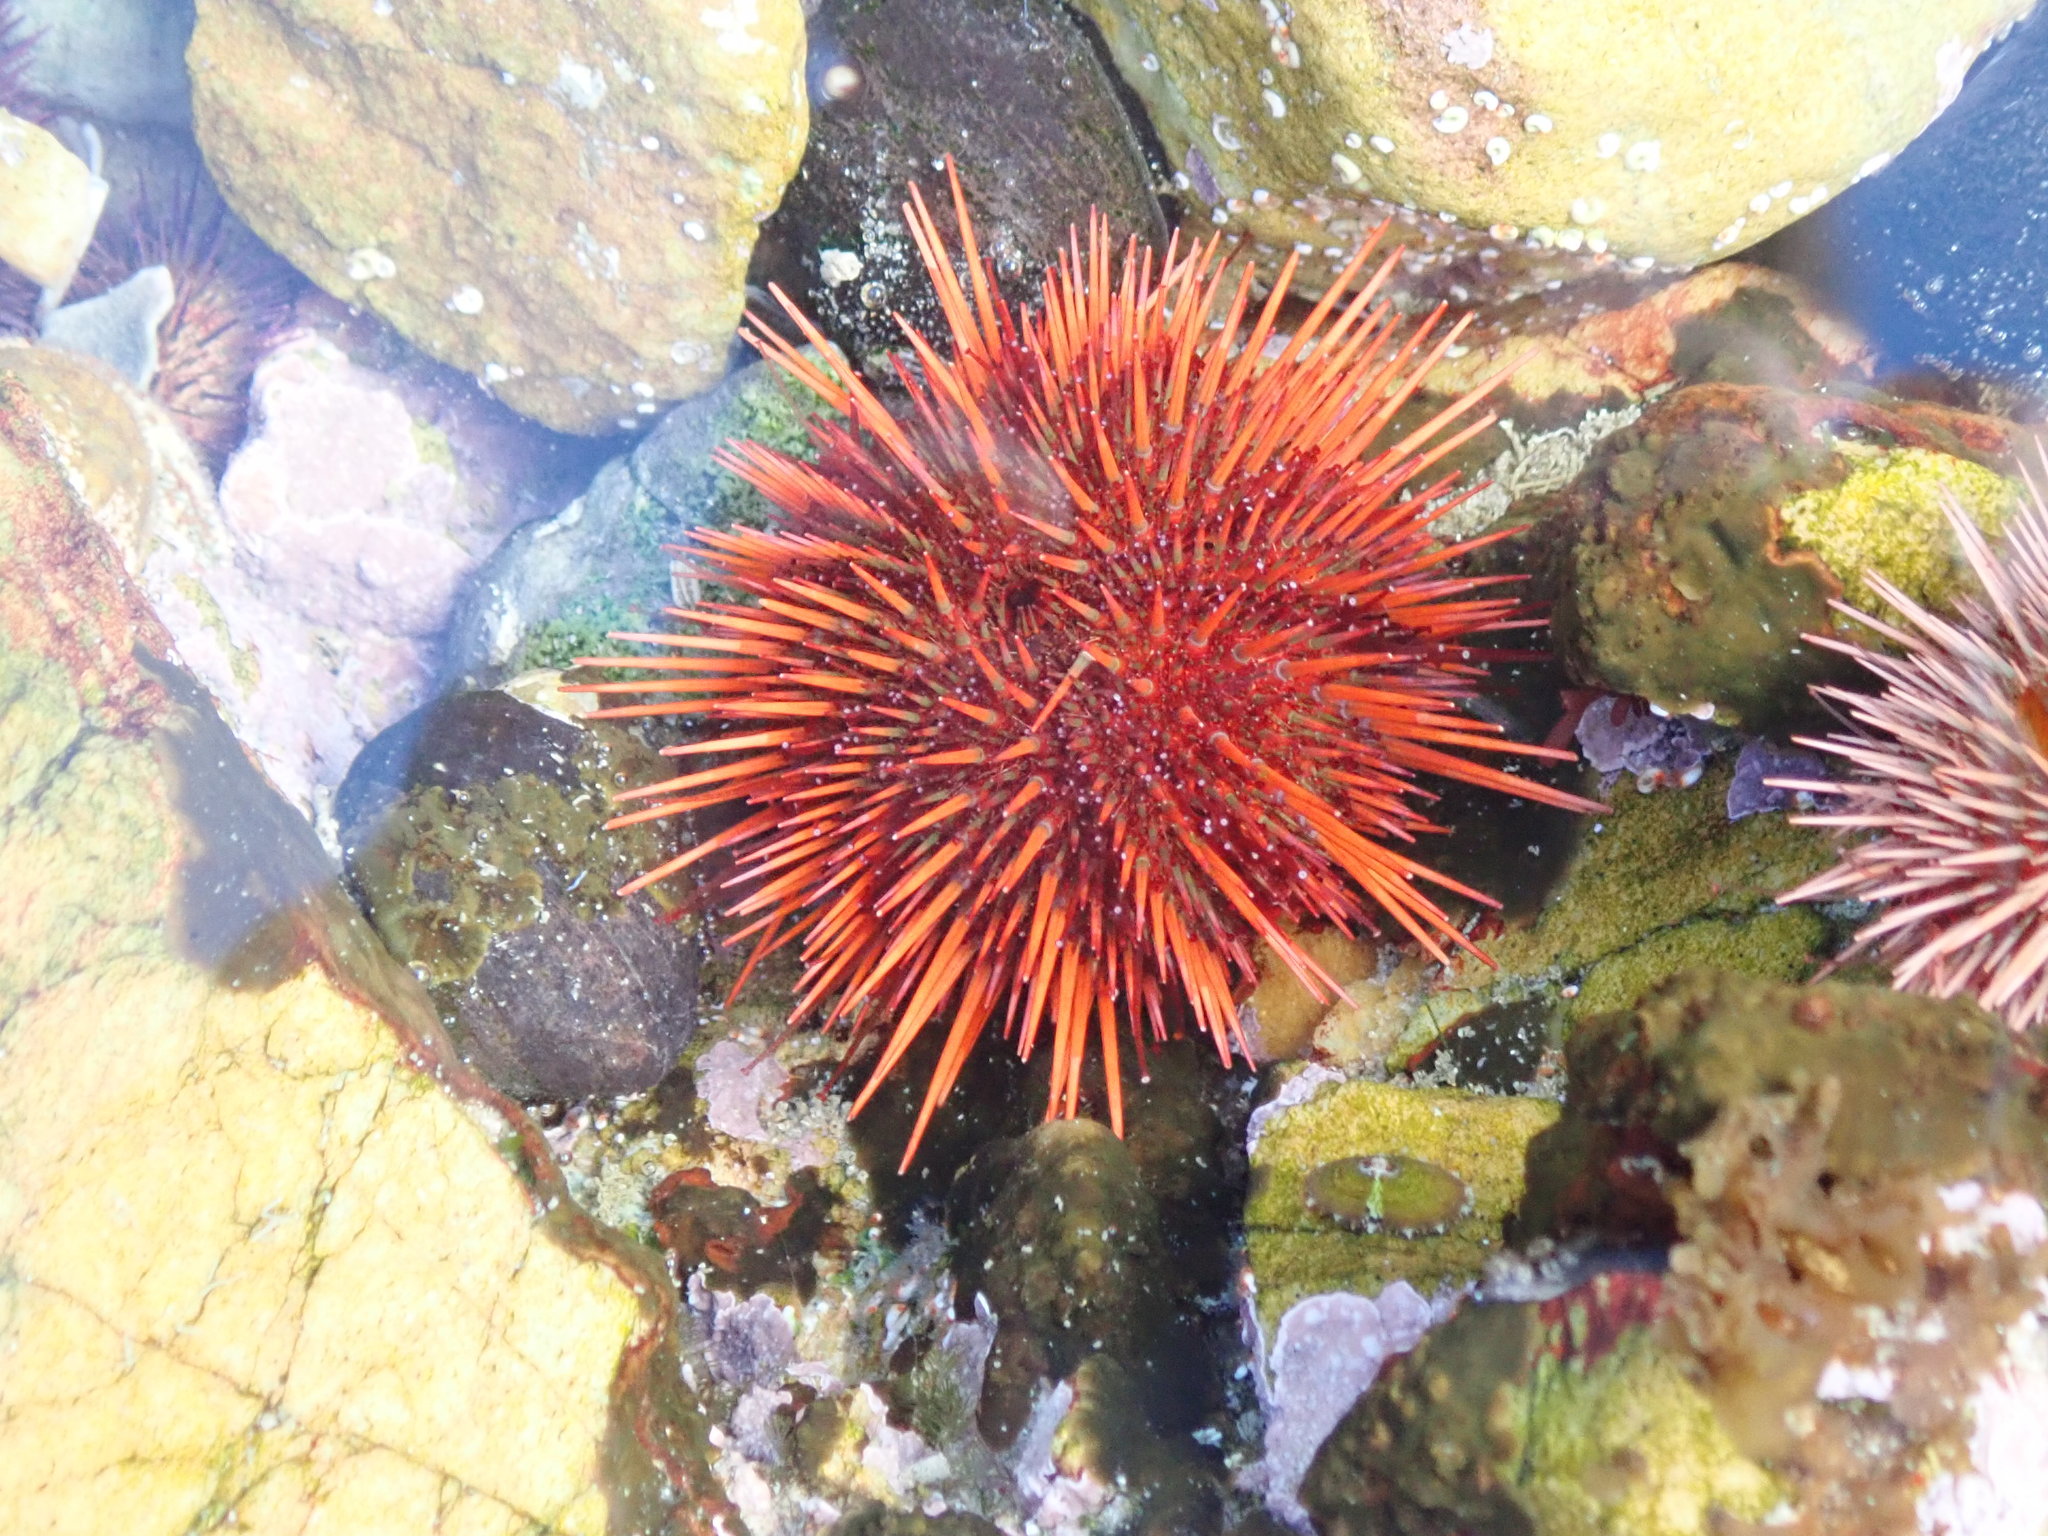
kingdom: Animalia
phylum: Echinodermata
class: Echinoidea
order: Camarodonta
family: Parechinidae
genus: Parechinus
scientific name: Parechinus angulosus
